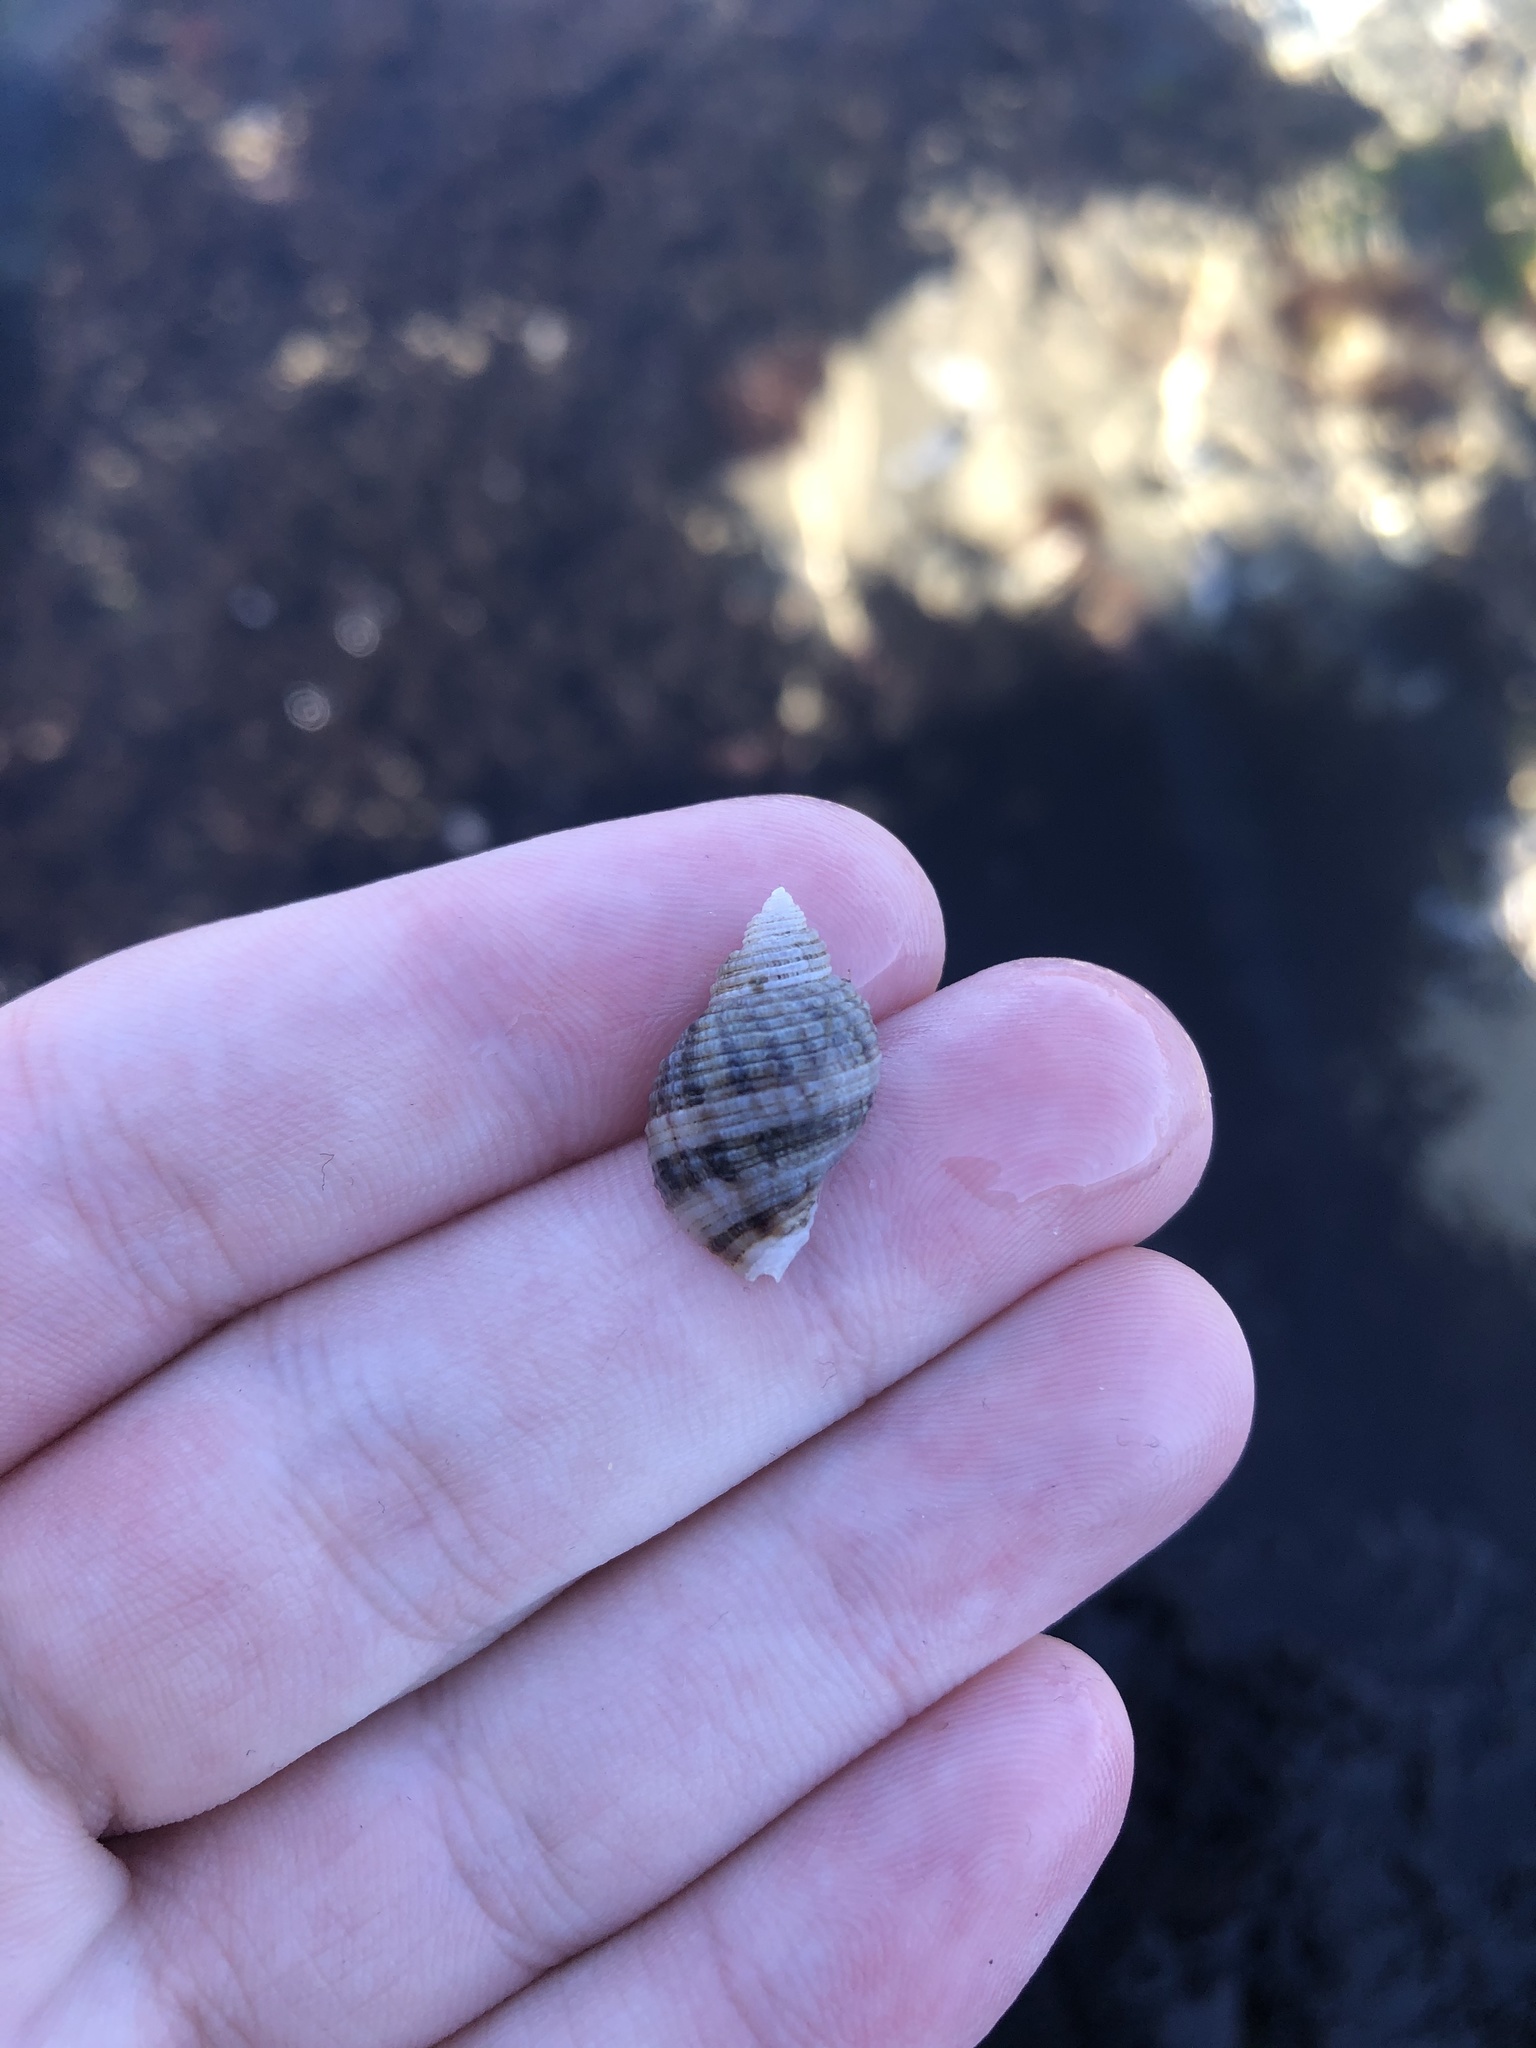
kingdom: Animalia
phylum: Mollusca
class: Gastropoda
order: Neogastropoda
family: Muricidae
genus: Nucella
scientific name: Nucella analoga
